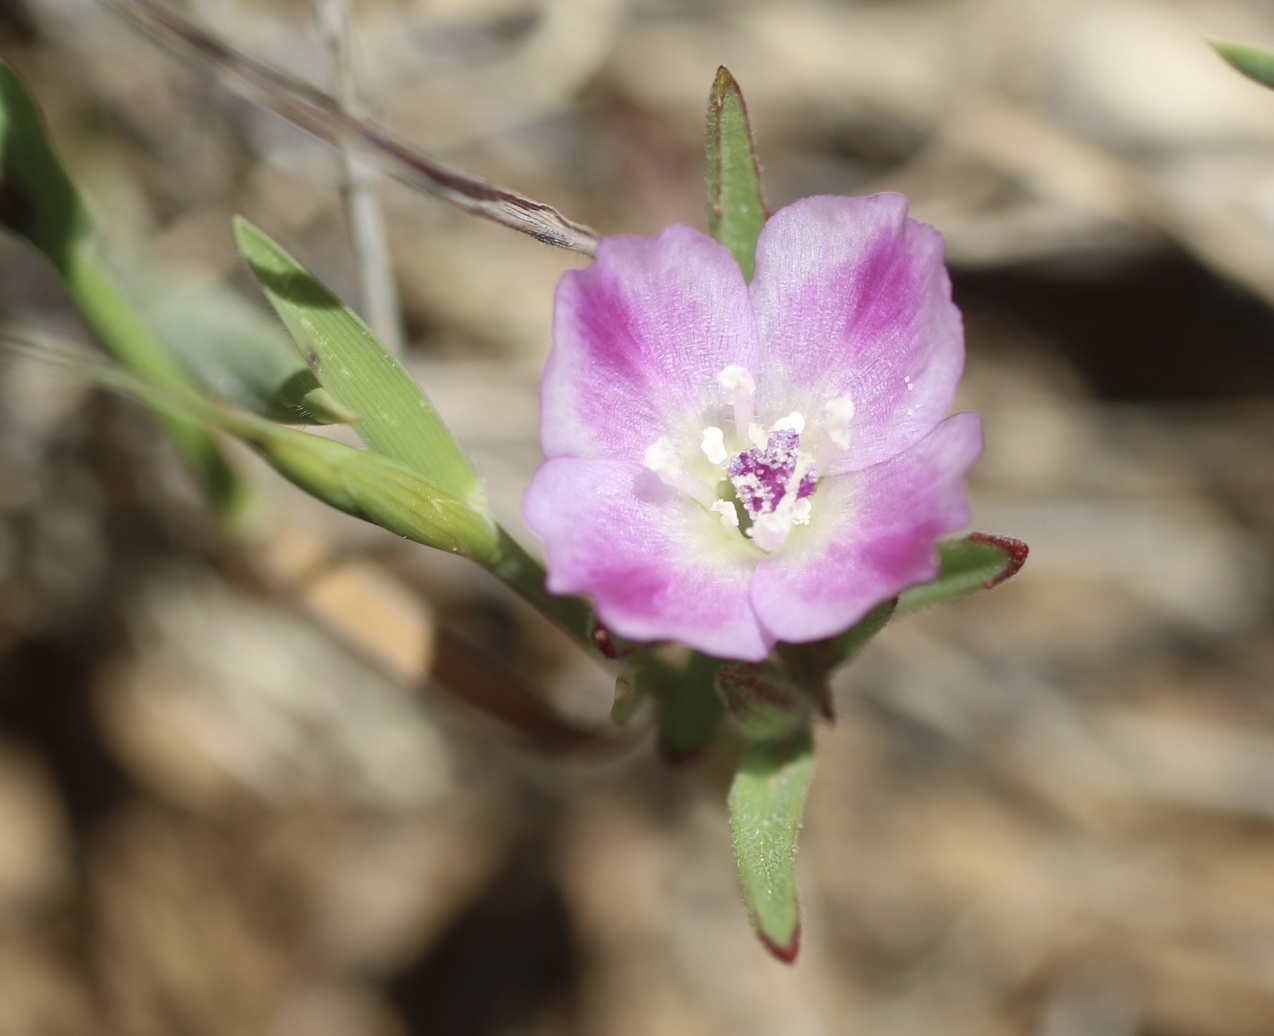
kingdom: Plantae
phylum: Tracheophyta
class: Magnoliopsida
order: Myrtales
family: Onagraceae
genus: Clarkia
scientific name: Clarkia purpurea
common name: Purple clarkia
